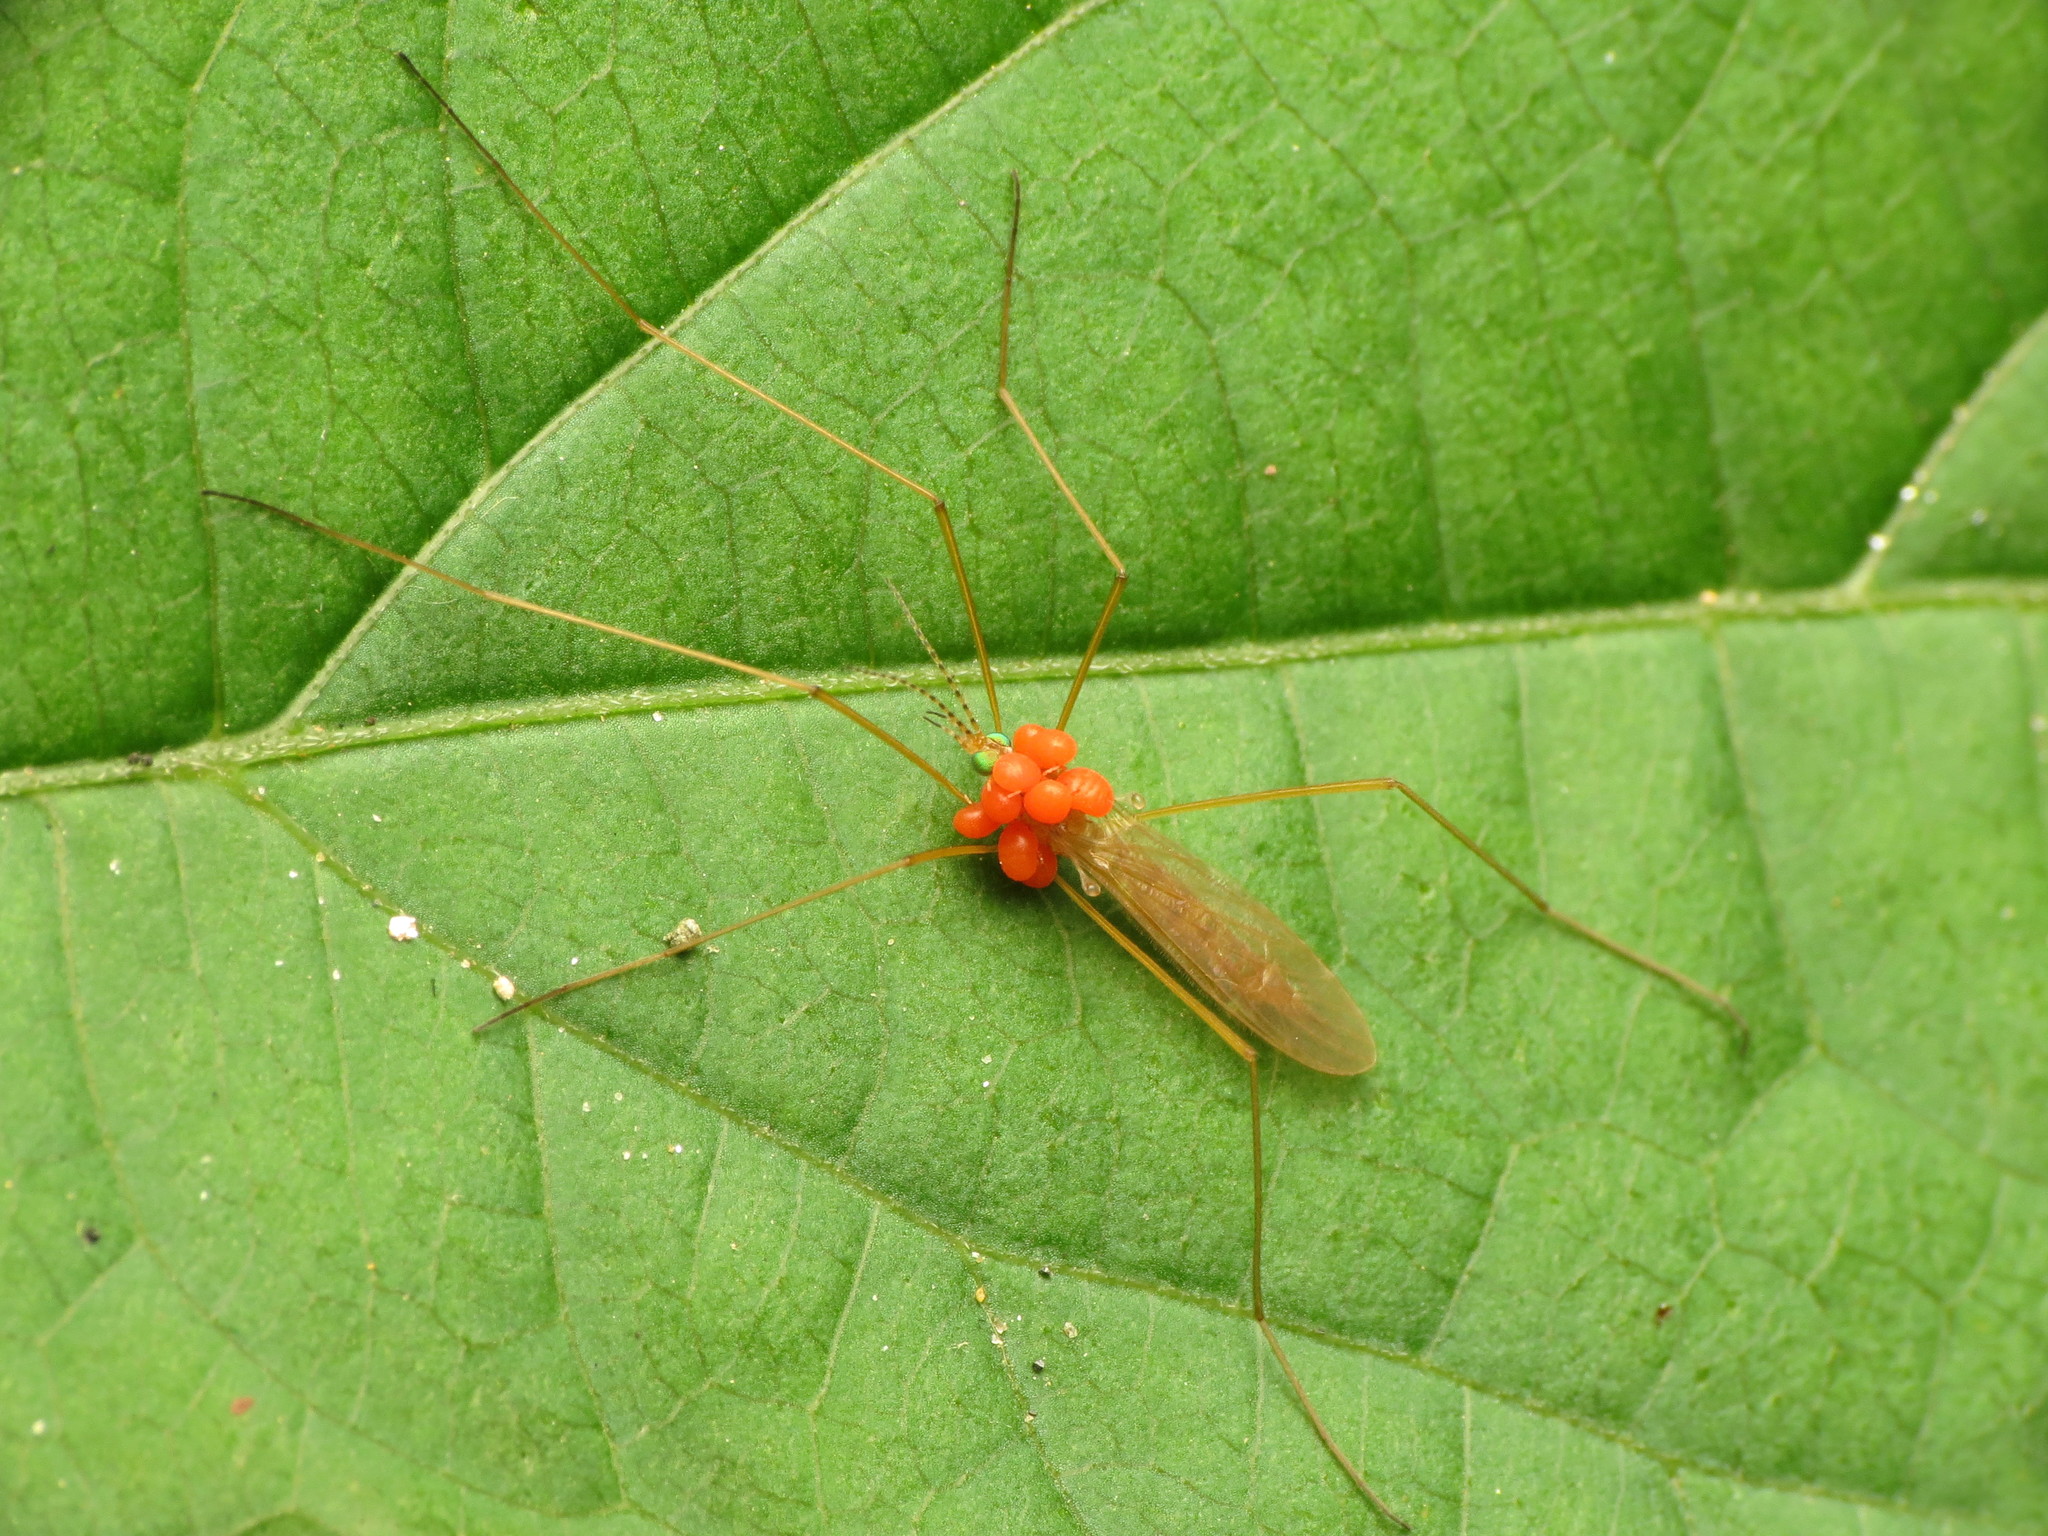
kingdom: Animalia
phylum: Arthropoda
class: Insecta
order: Diptera
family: Limoniidae
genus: Atarba
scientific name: Atarba picticornis
